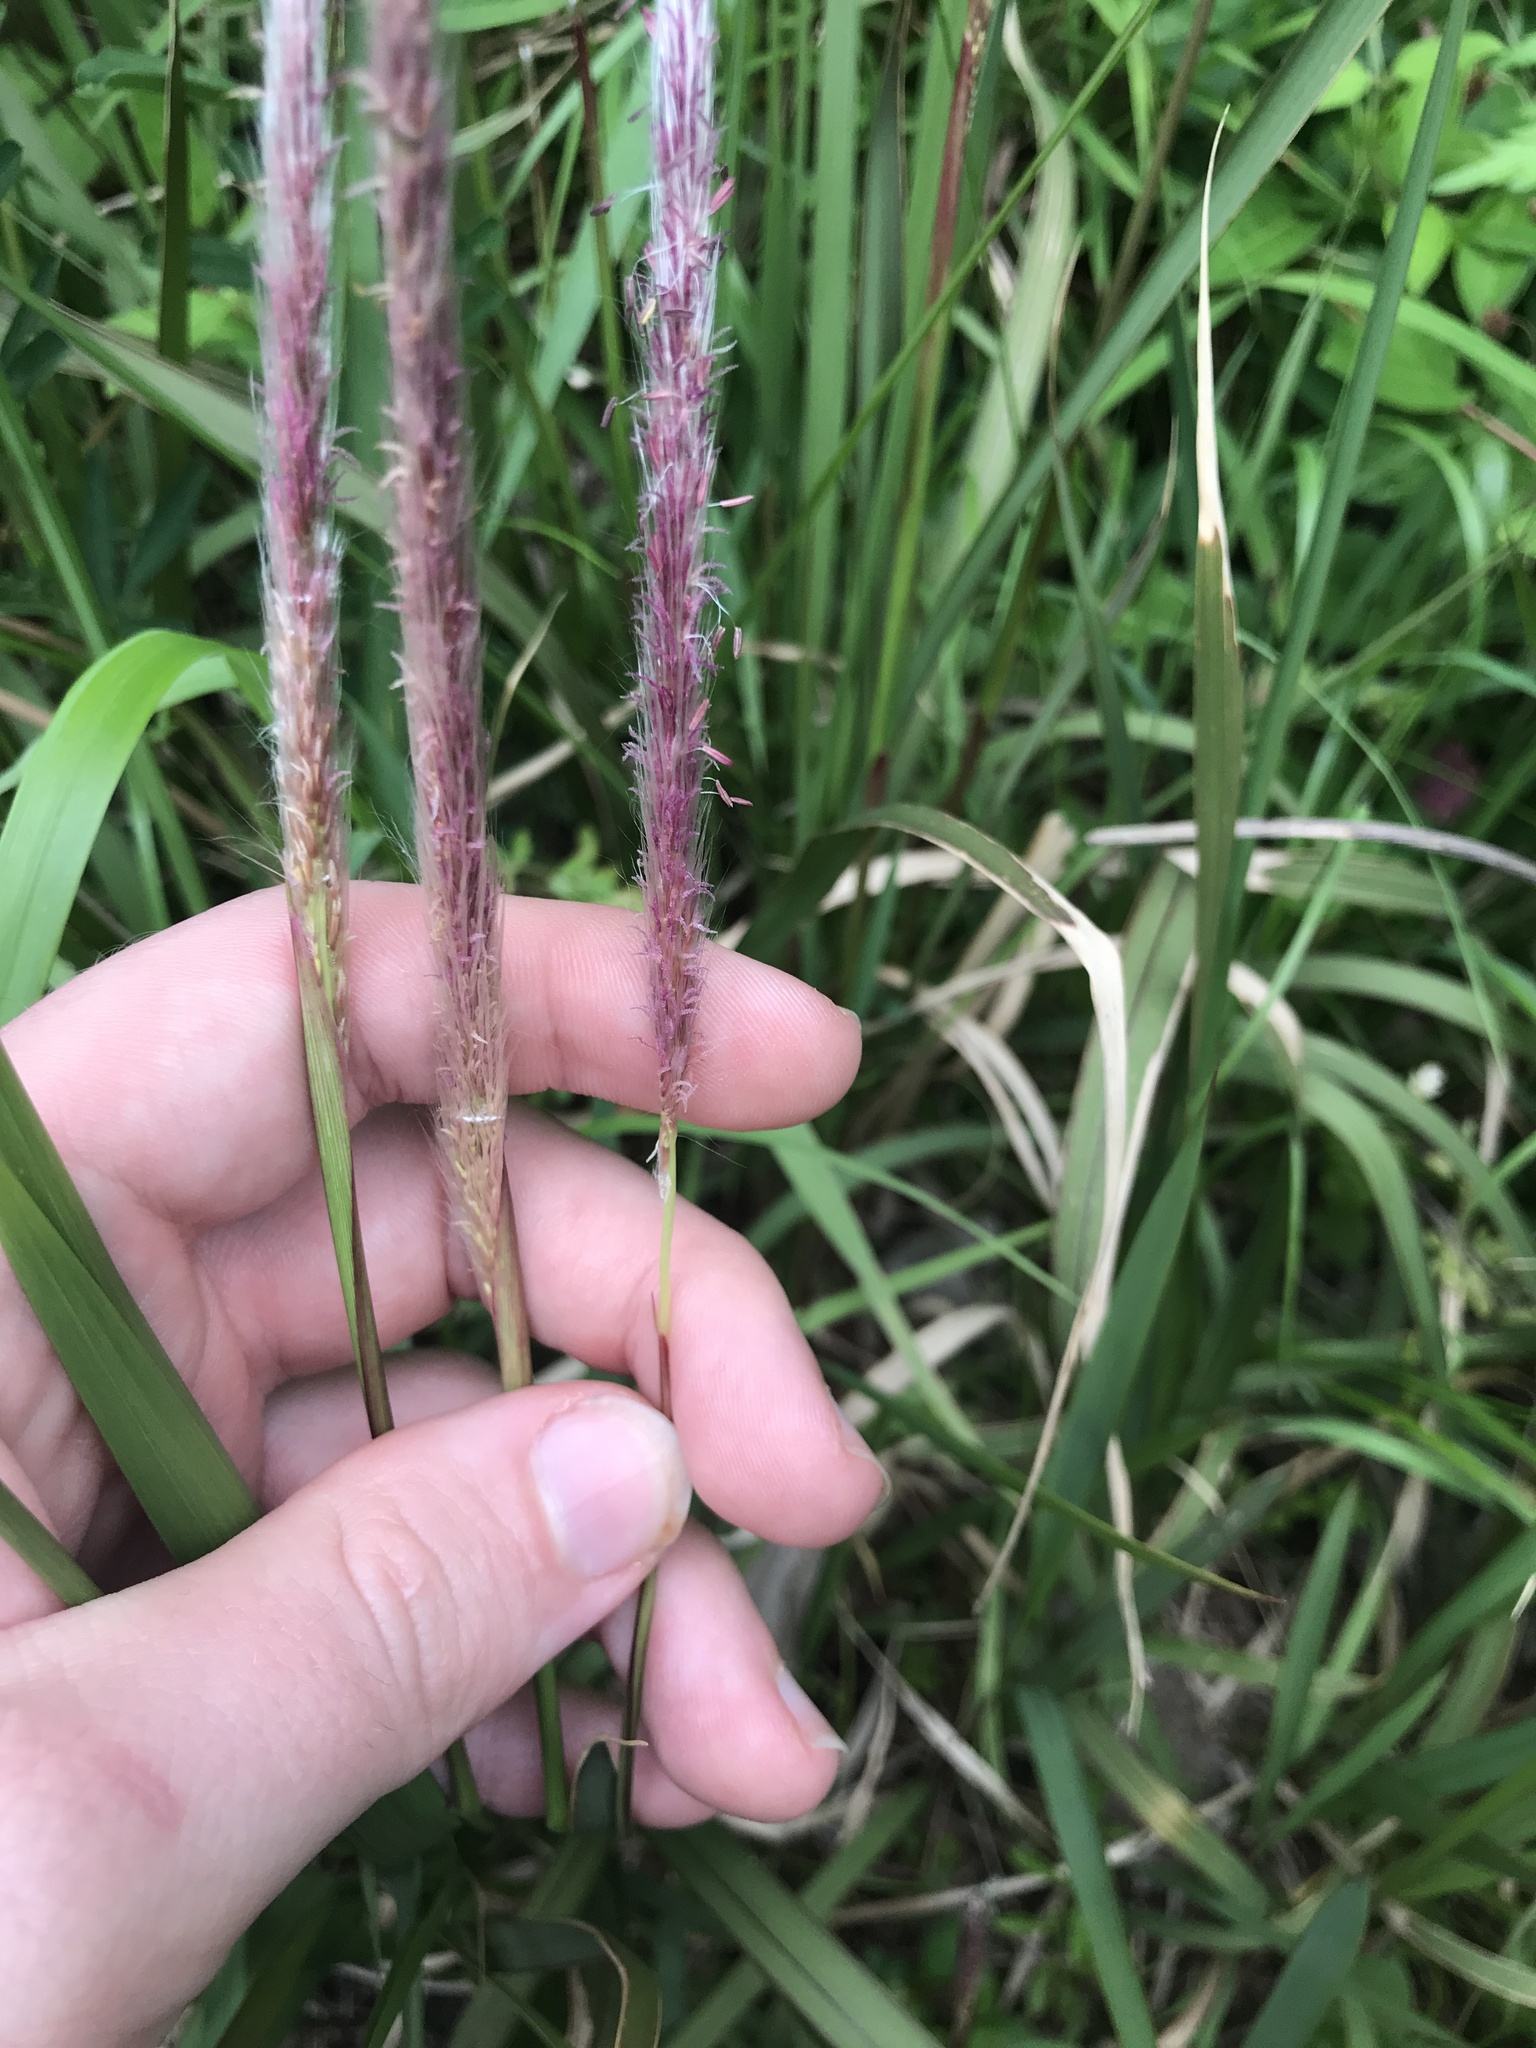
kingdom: Plantae
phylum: Tracheophyta
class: Liliopsida
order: Poales
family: Poaceae
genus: Imperata
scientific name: Imperata cylindrica
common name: Cogongrass
